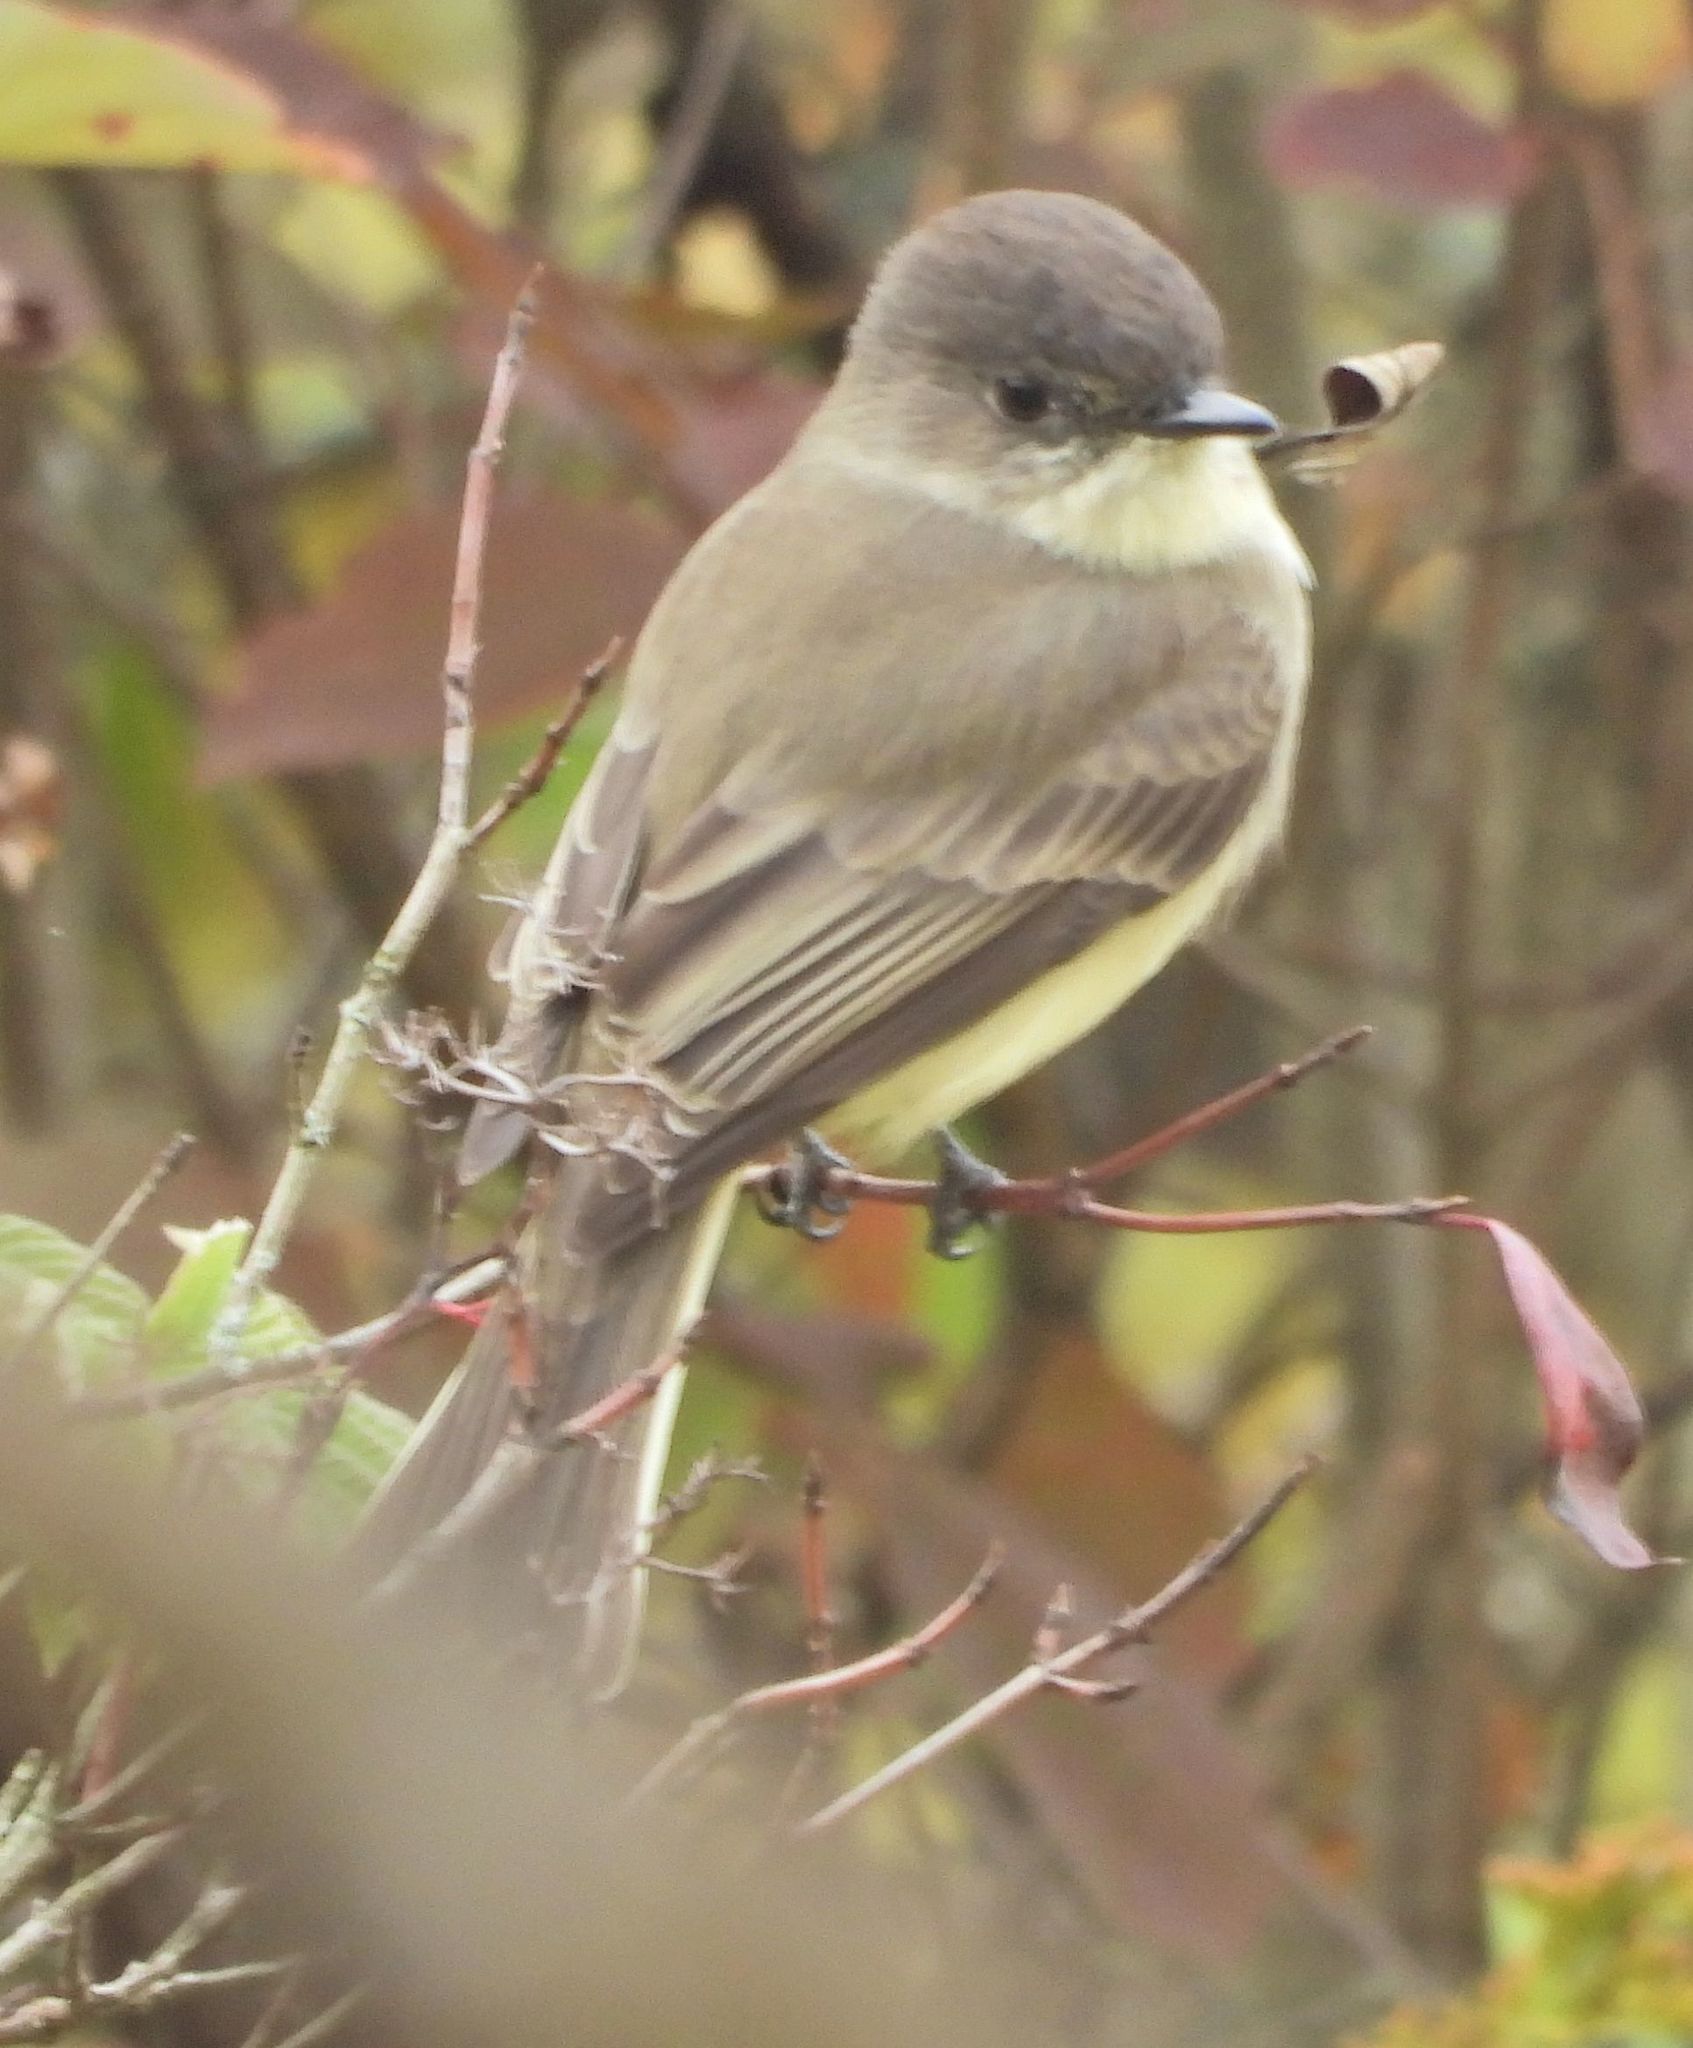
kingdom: Animalia
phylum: Chordata
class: Aves
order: Passeriformes
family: Tyrannidae
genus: Sayornis
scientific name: Sayornis phoebe
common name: Eastern phoebe
